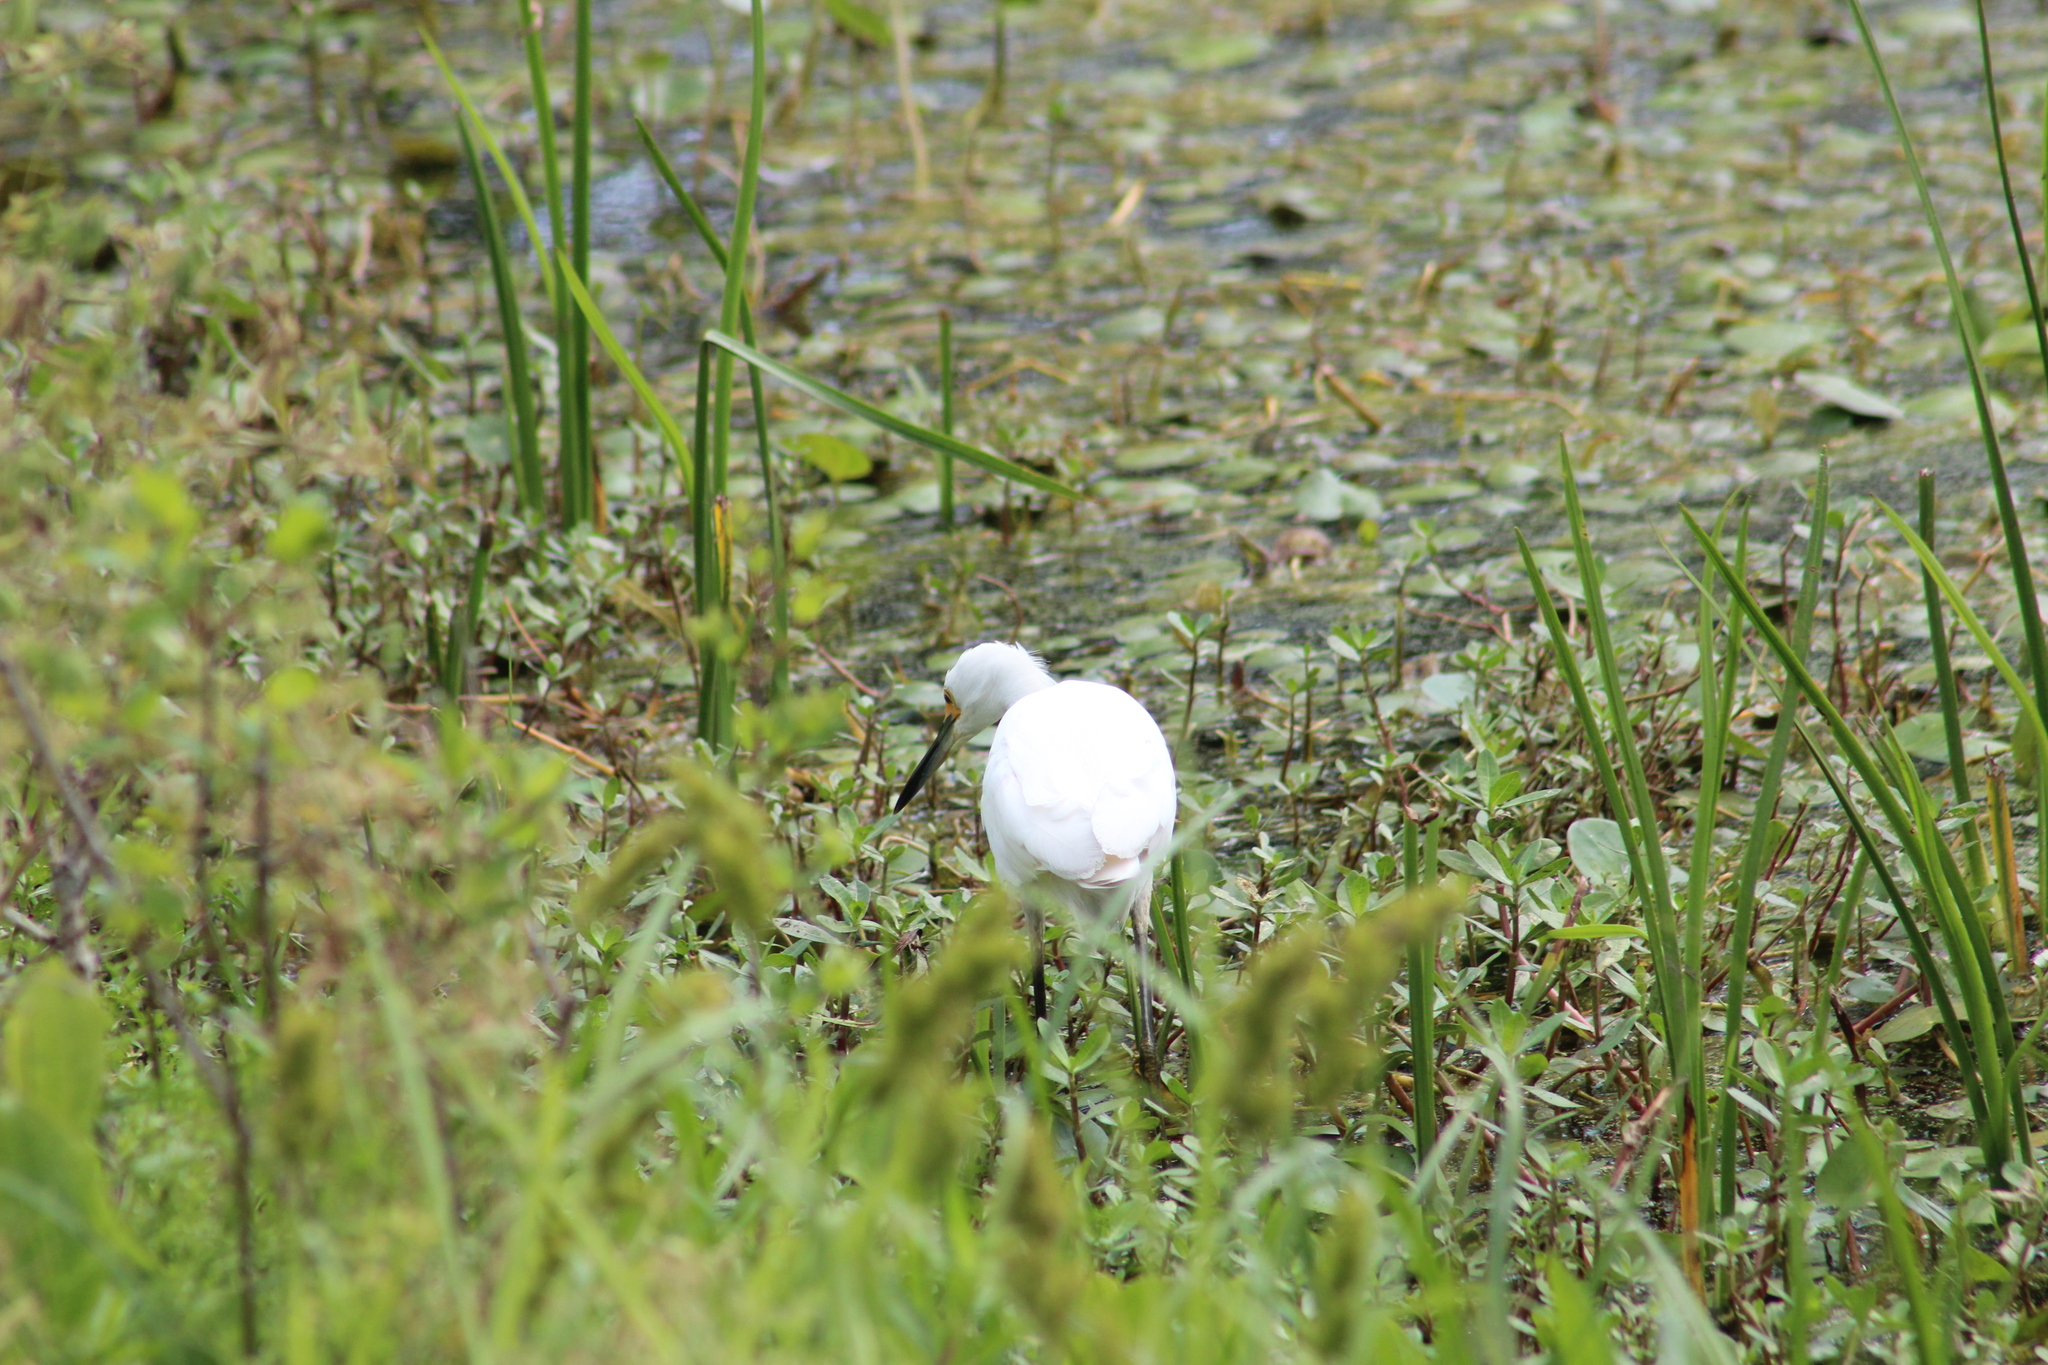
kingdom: Animalia
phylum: Chordata
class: Aves
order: Pelecaniformes
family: Ardeidae
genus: Egretta
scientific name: Egretta thula
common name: Snowy egret
